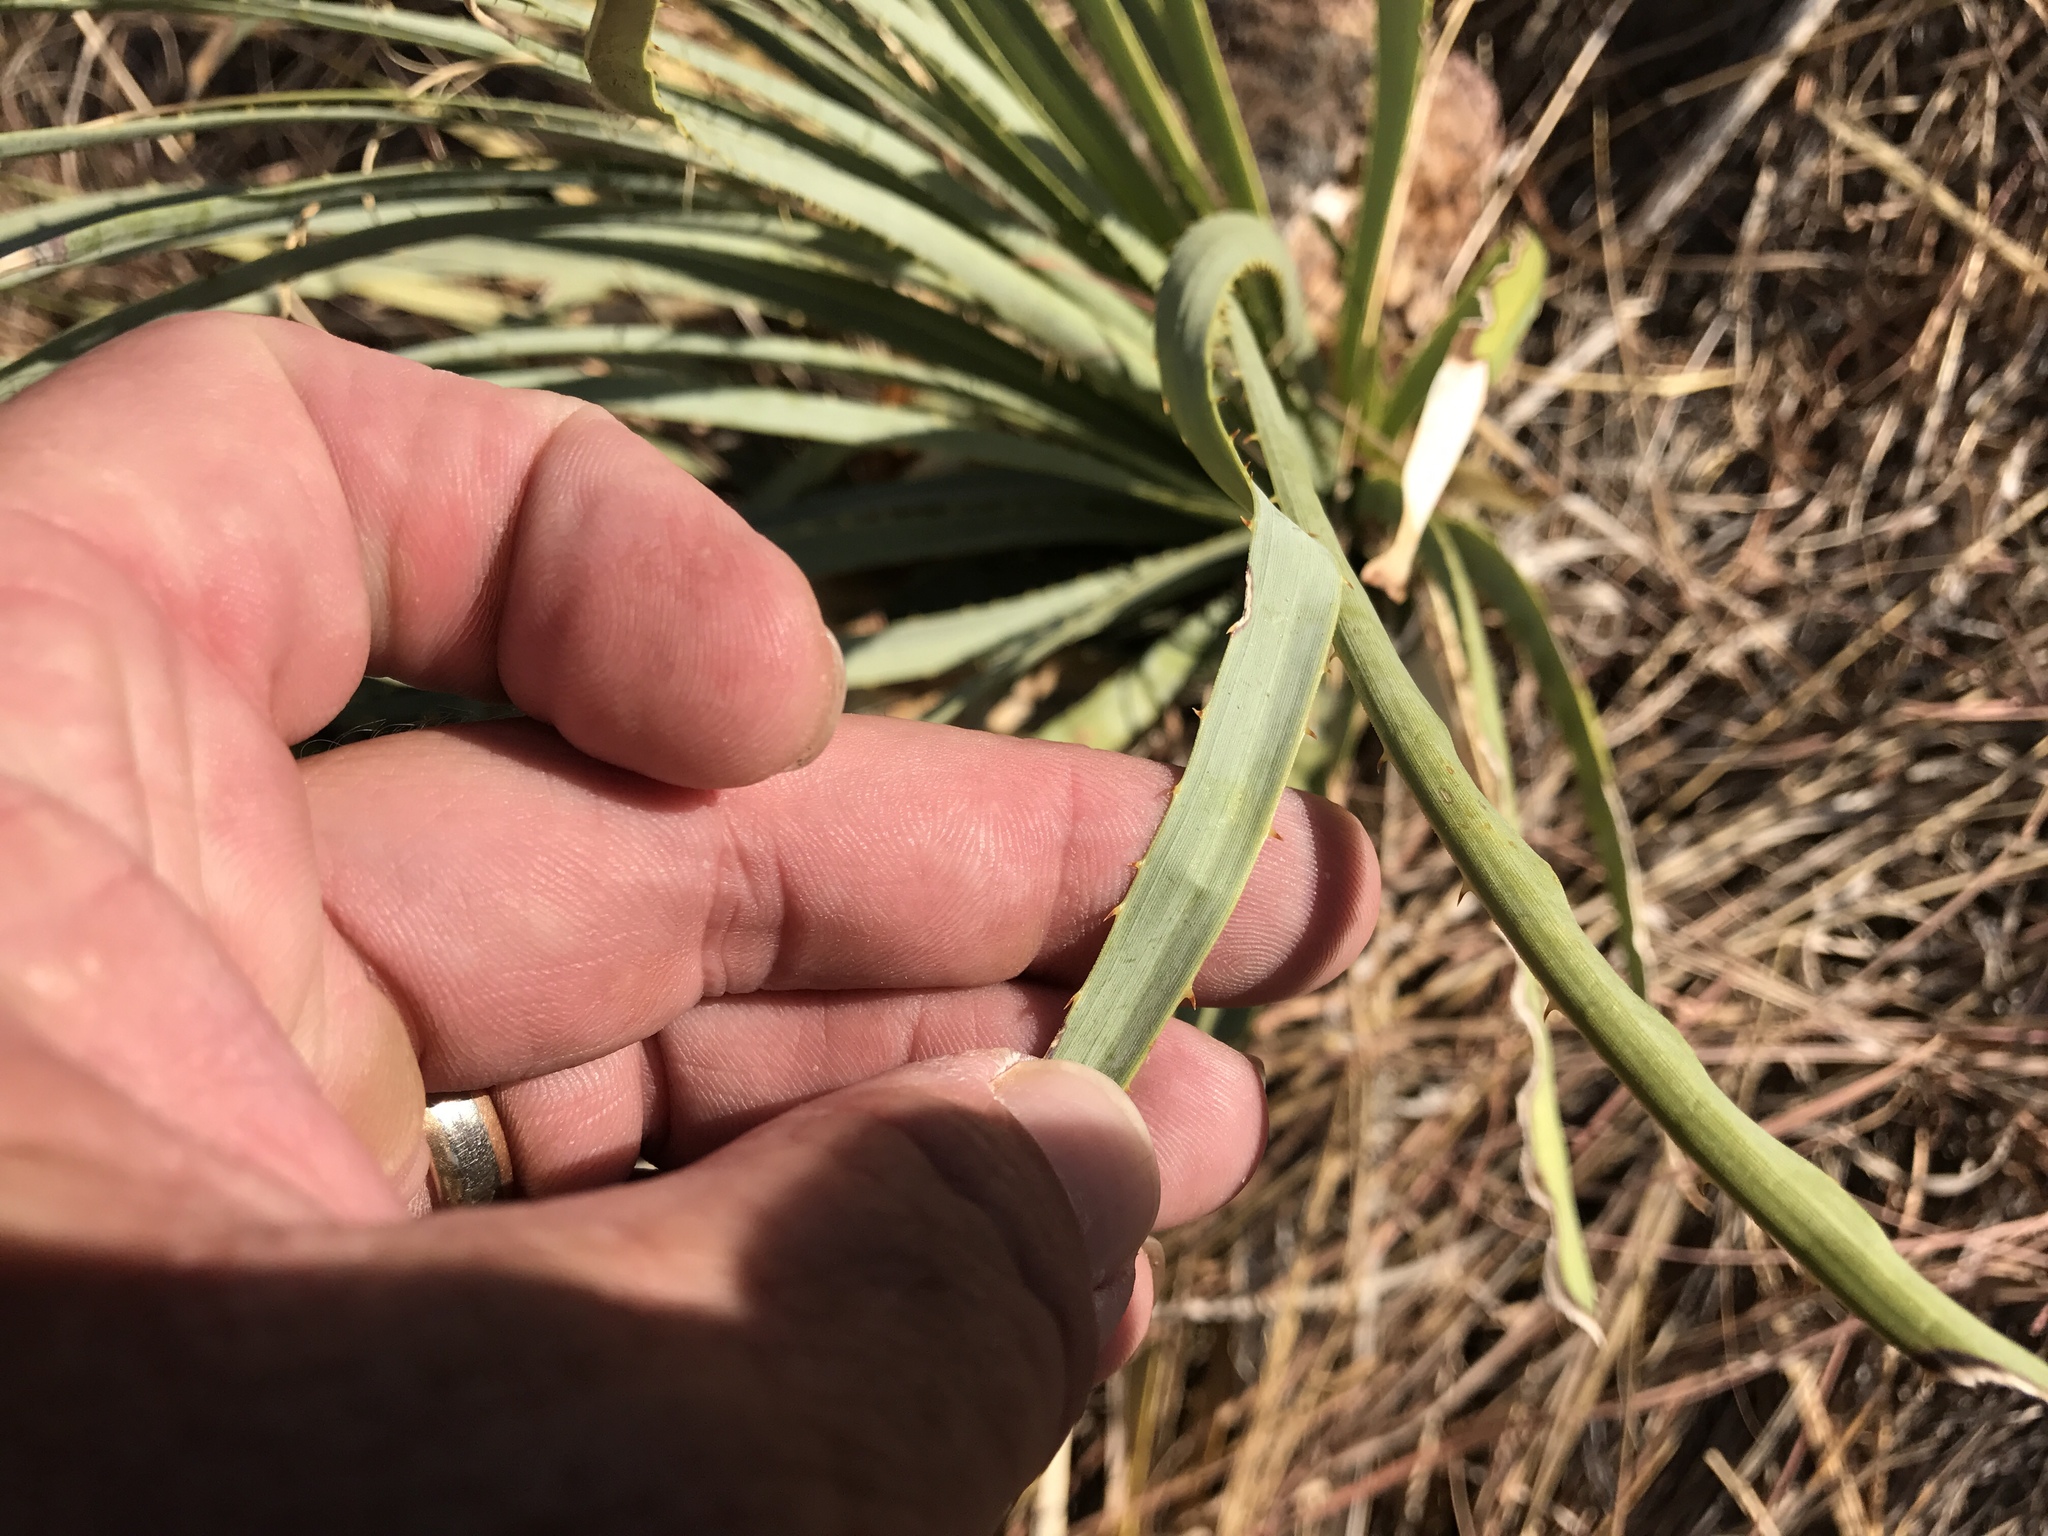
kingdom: Plantae
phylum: Tracheophyta
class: Liliopsida
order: Asparagales
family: Asparagaceae
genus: Dasylirion
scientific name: Dasylirion wheeleri
